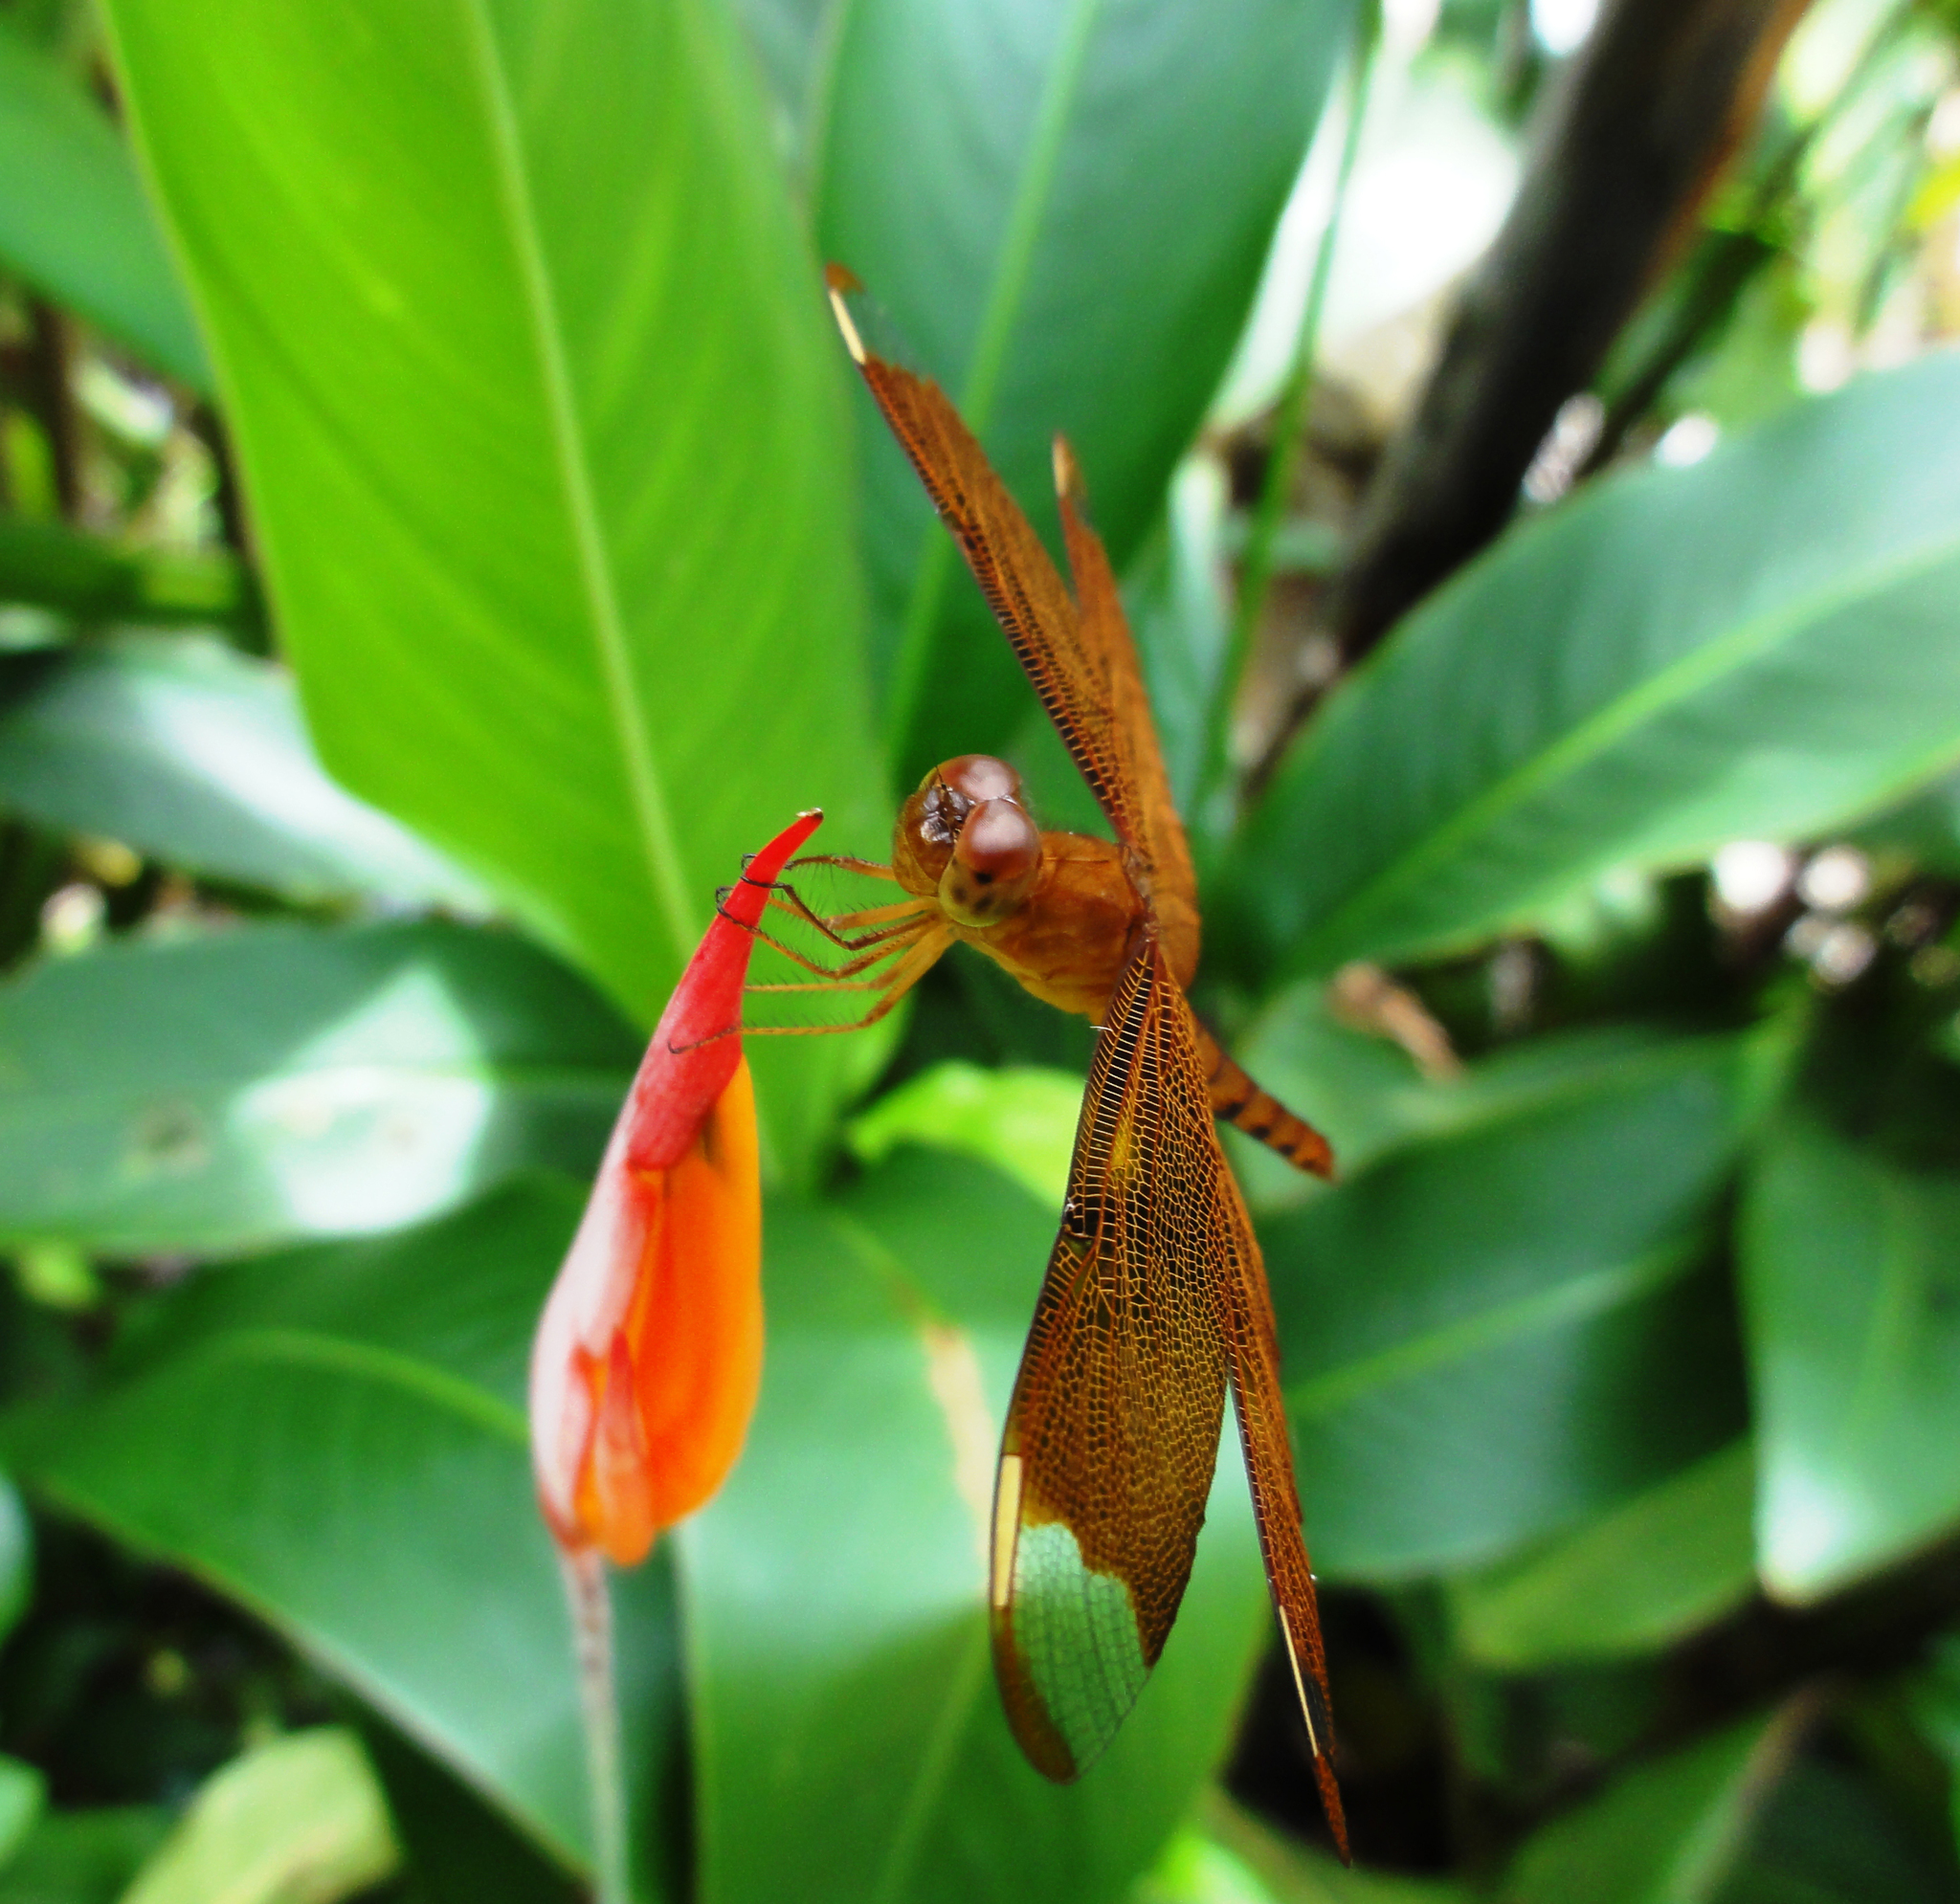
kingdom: Animalia
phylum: Arthropoda
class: Insecta
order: Odonata
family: Libellulidae
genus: Neurothemis
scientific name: Neurothemis fulvia
